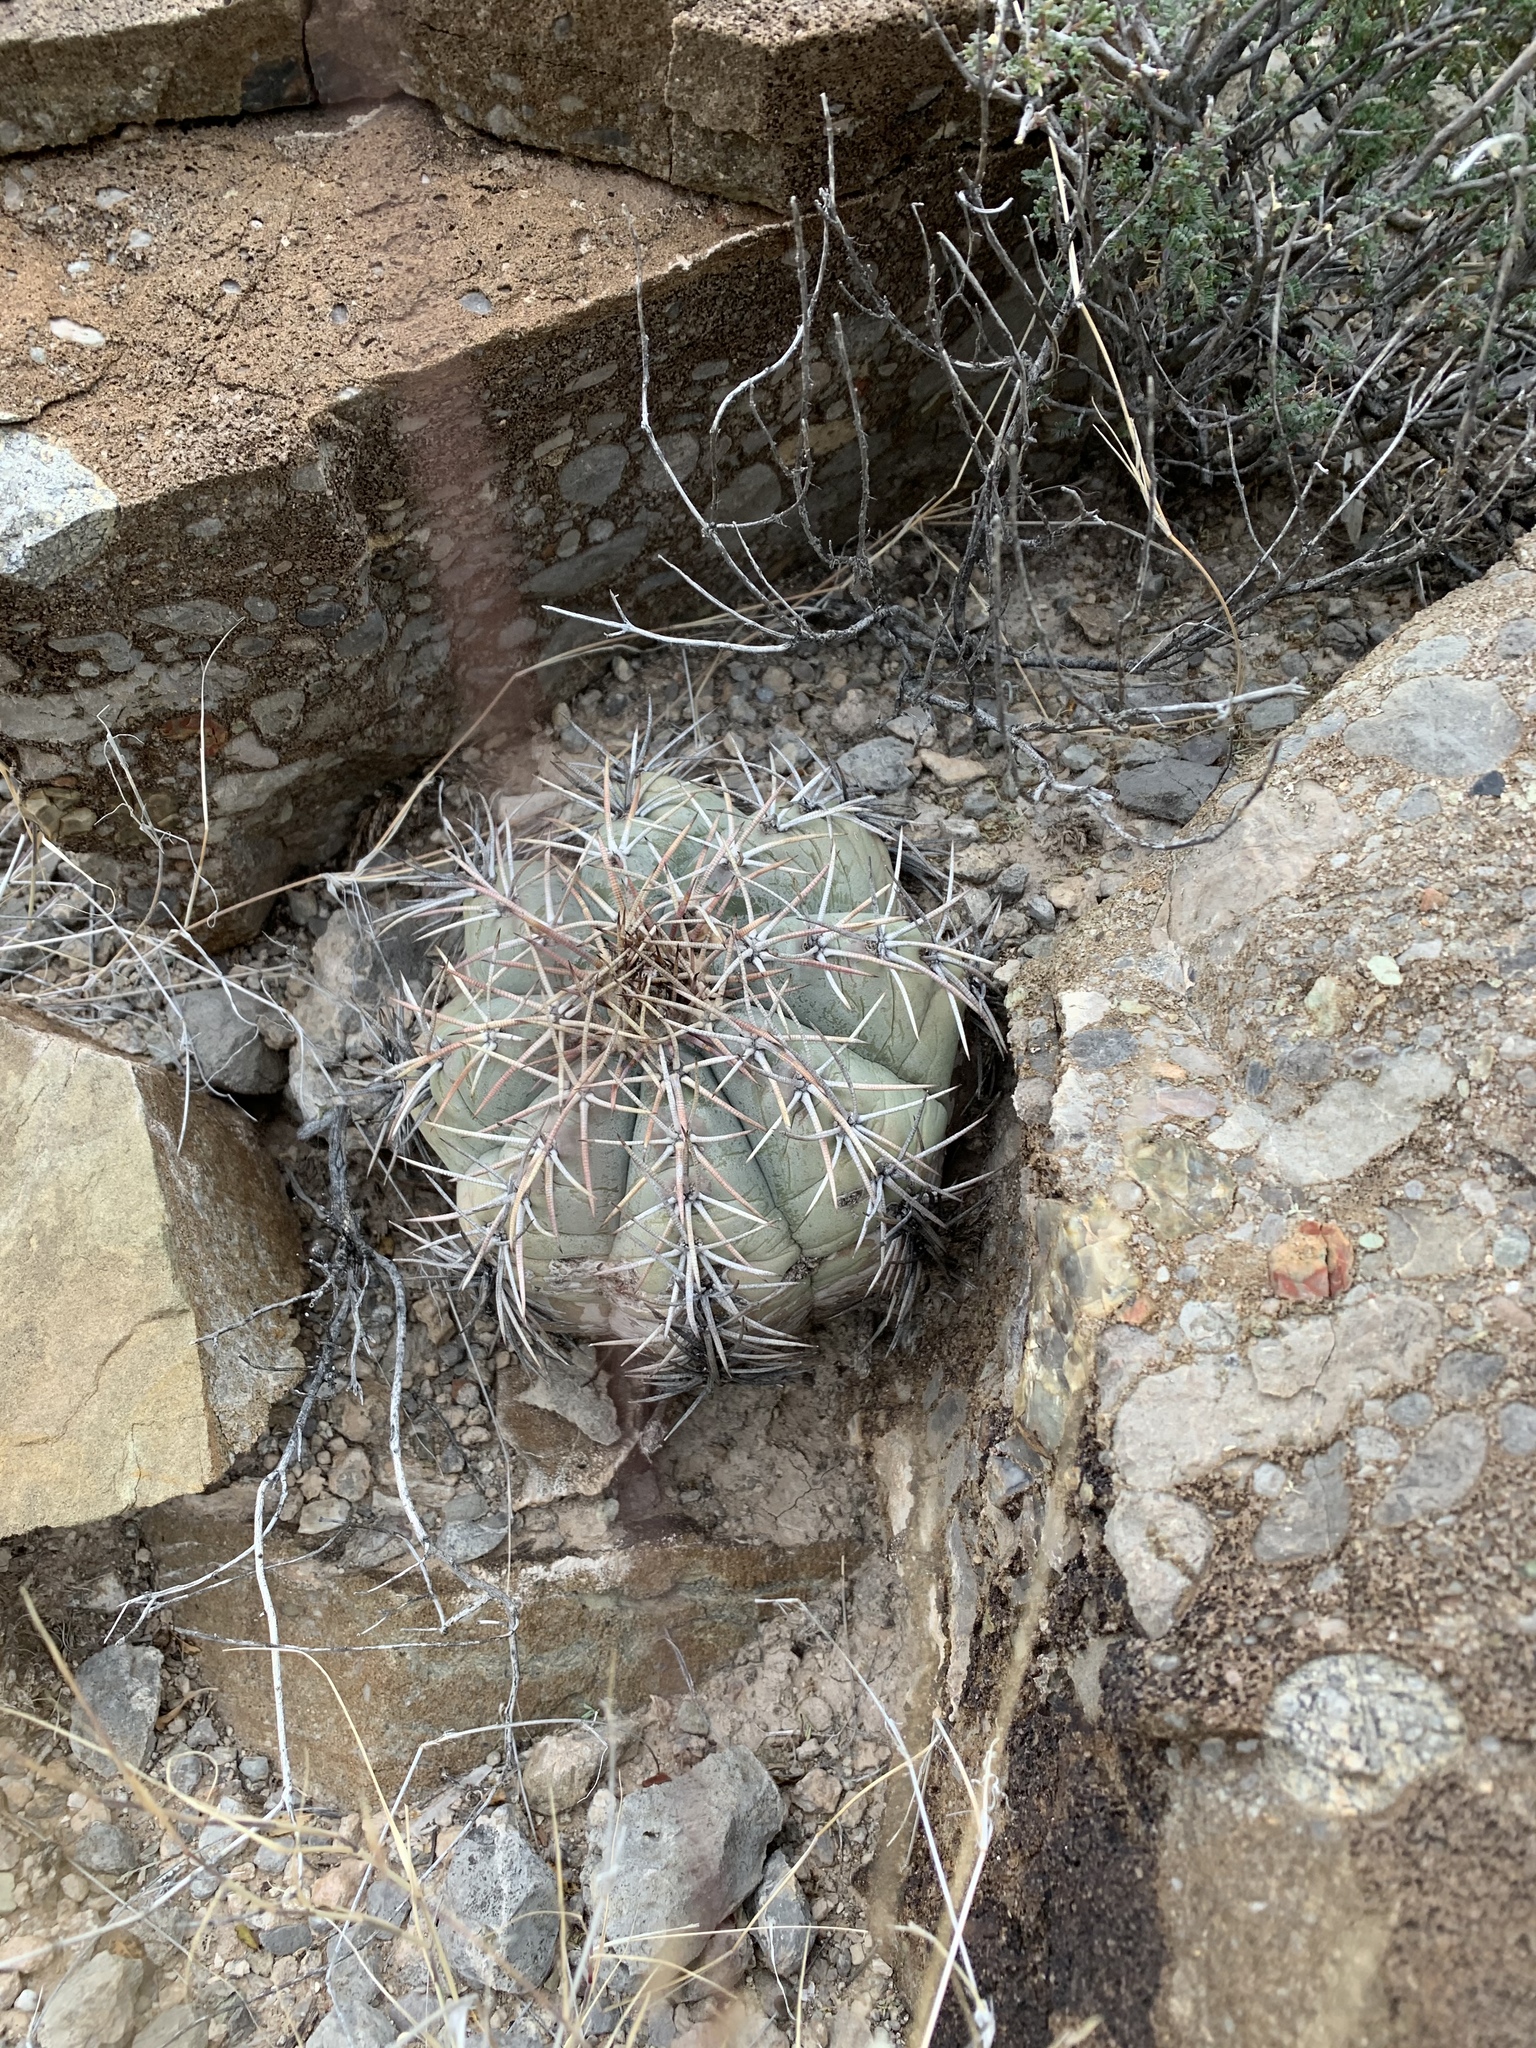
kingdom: Plantae
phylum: Tracheophyta
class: Magnoliopsida
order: Caryophyllales
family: Cactaceae
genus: Echinocactus
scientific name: Echinocactus horizonthalonius
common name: Devilshead
